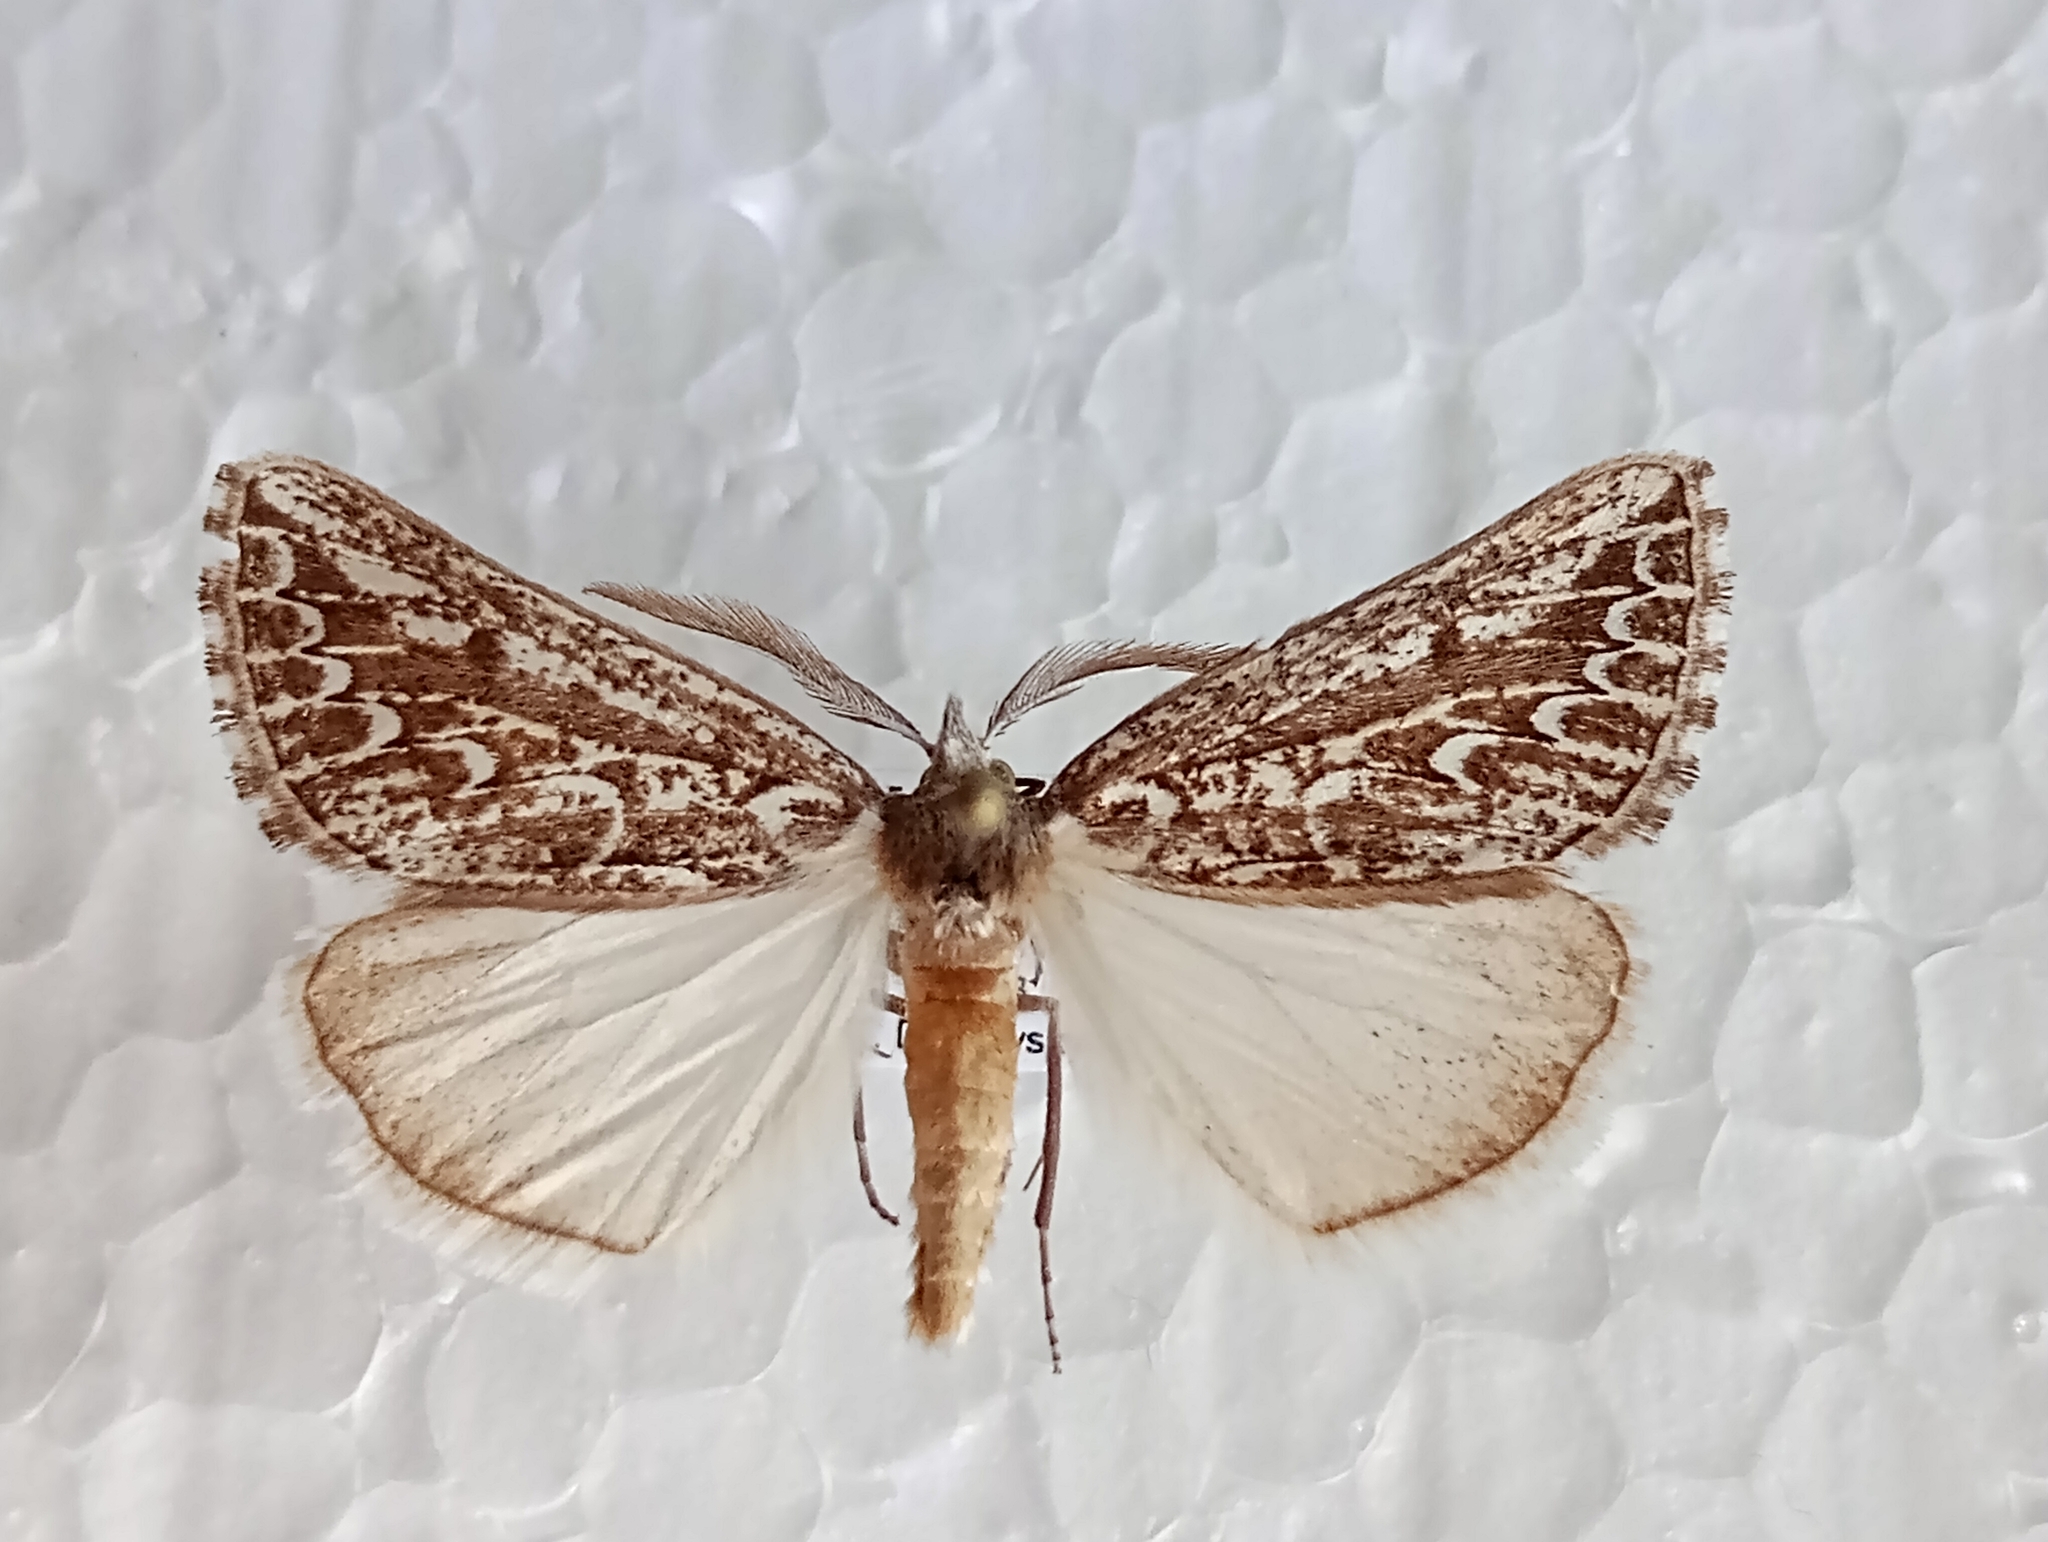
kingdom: Animalia
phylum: Arthropoda
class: Insecta
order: Lepidoptera
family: Geometridae
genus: Compsoptera
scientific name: Compsoptera jourdanaria
